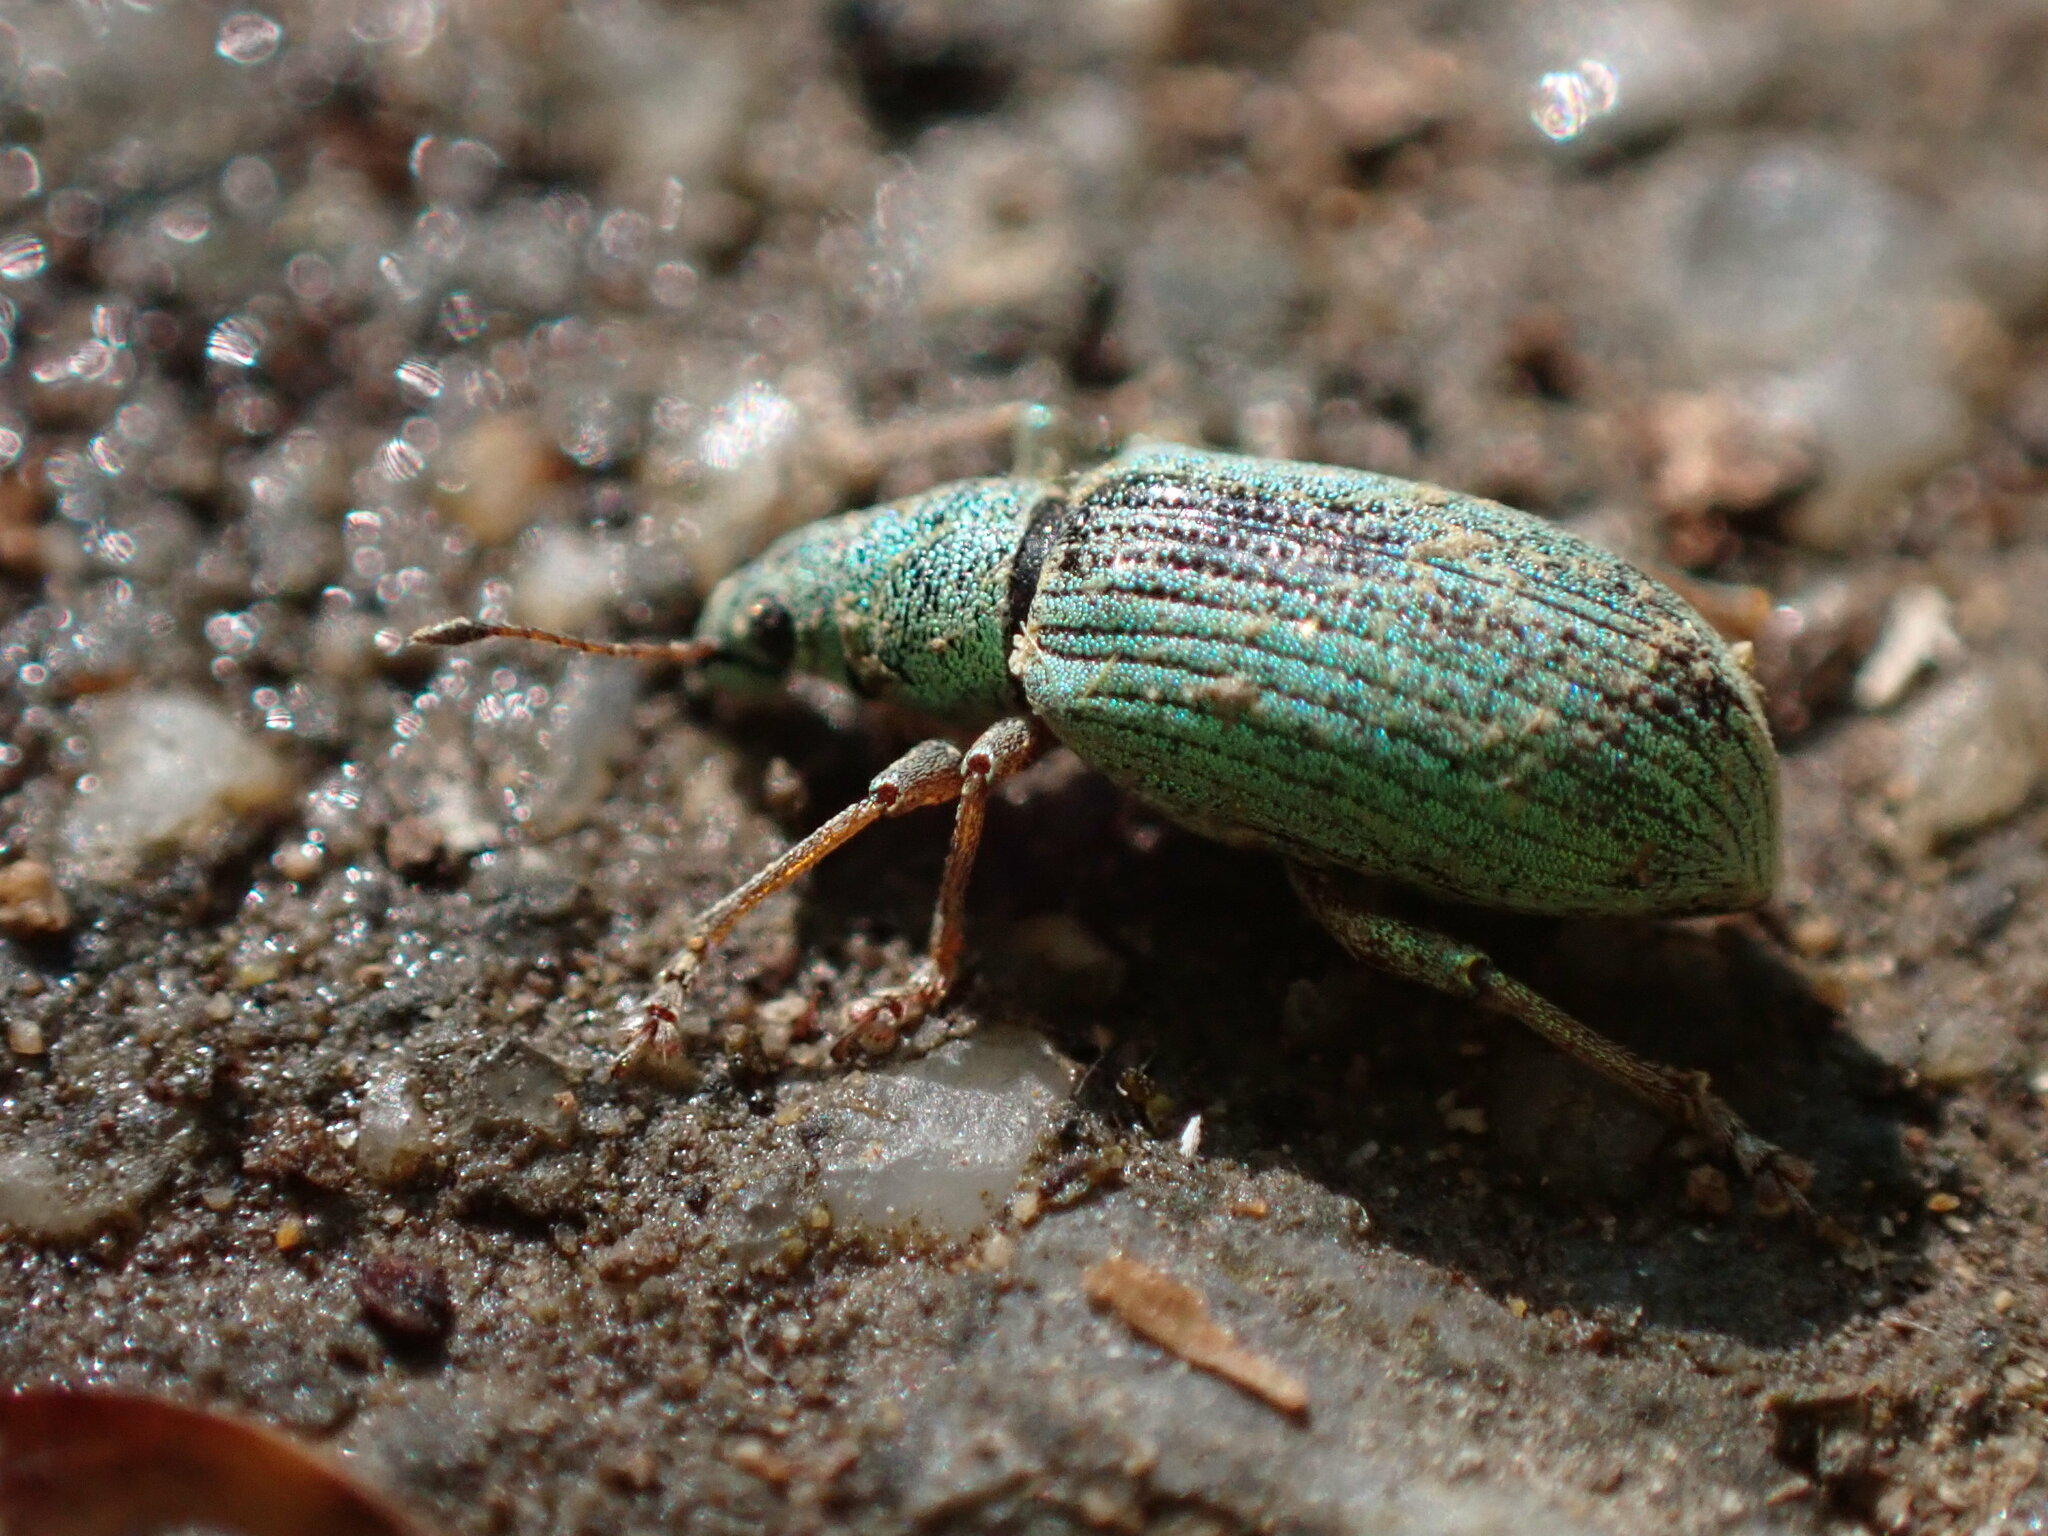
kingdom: Animalia
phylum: Arthropoda
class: Insecta
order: Coleoptera
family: Curculionidae
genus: Polydrusus
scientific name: Polydrusus formosus
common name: Weevil
